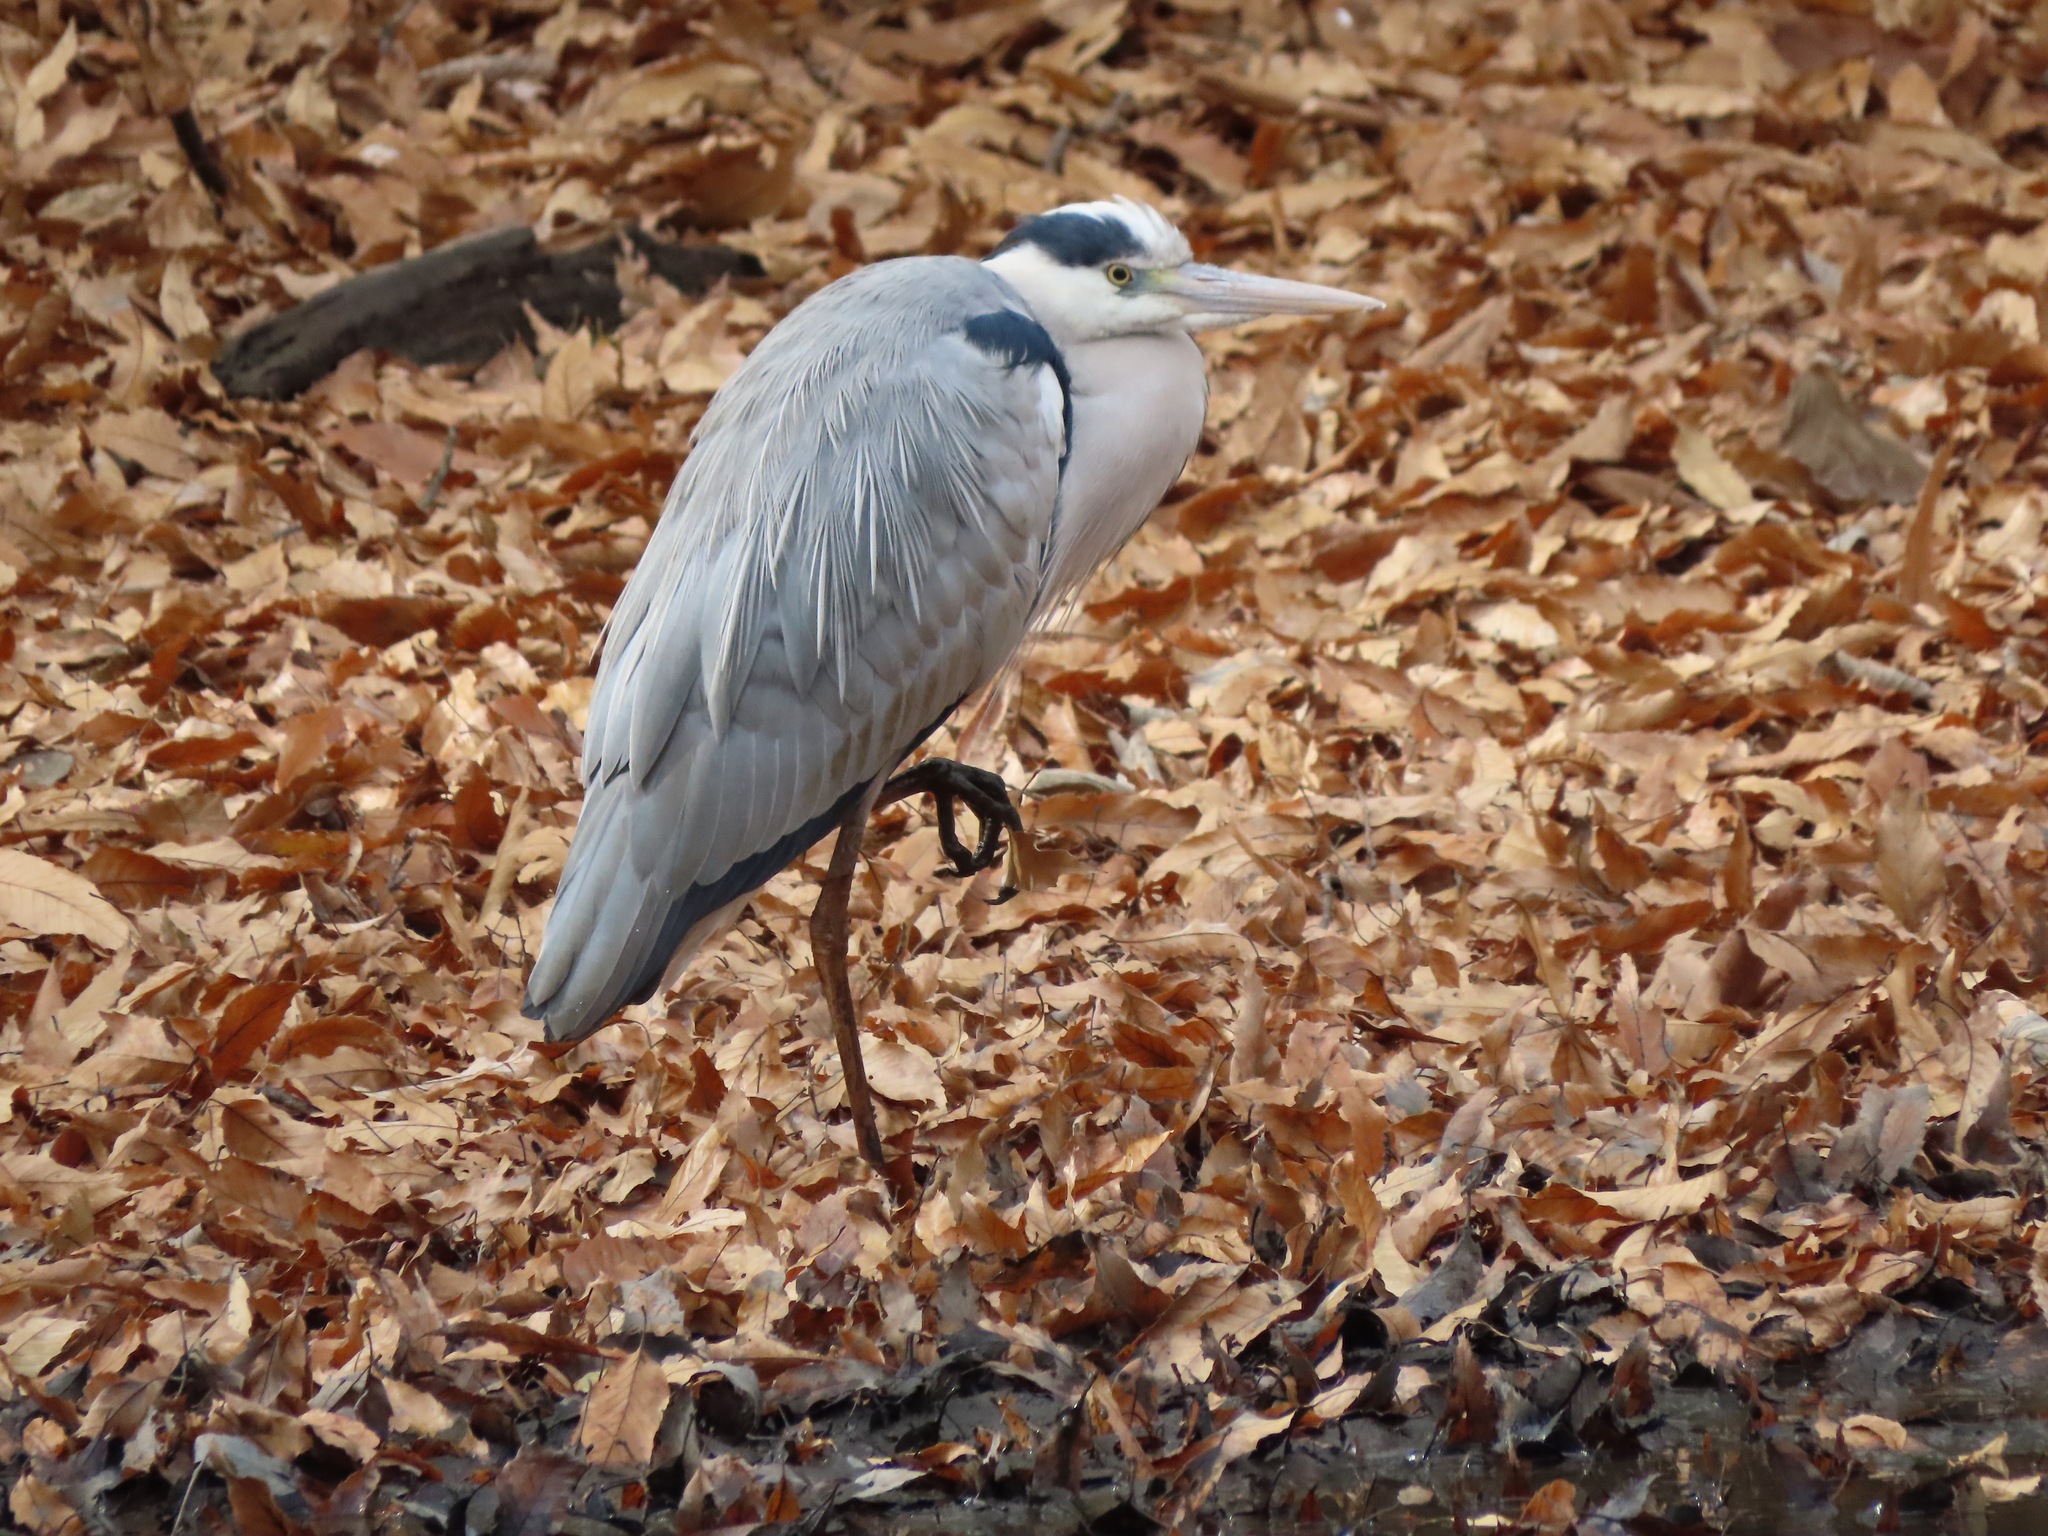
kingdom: Animalia
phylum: Chordata
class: Aves
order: Pelecaniformes
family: Ardeidae
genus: Ardea
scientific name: Ardea cinerea
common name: Grey heron
